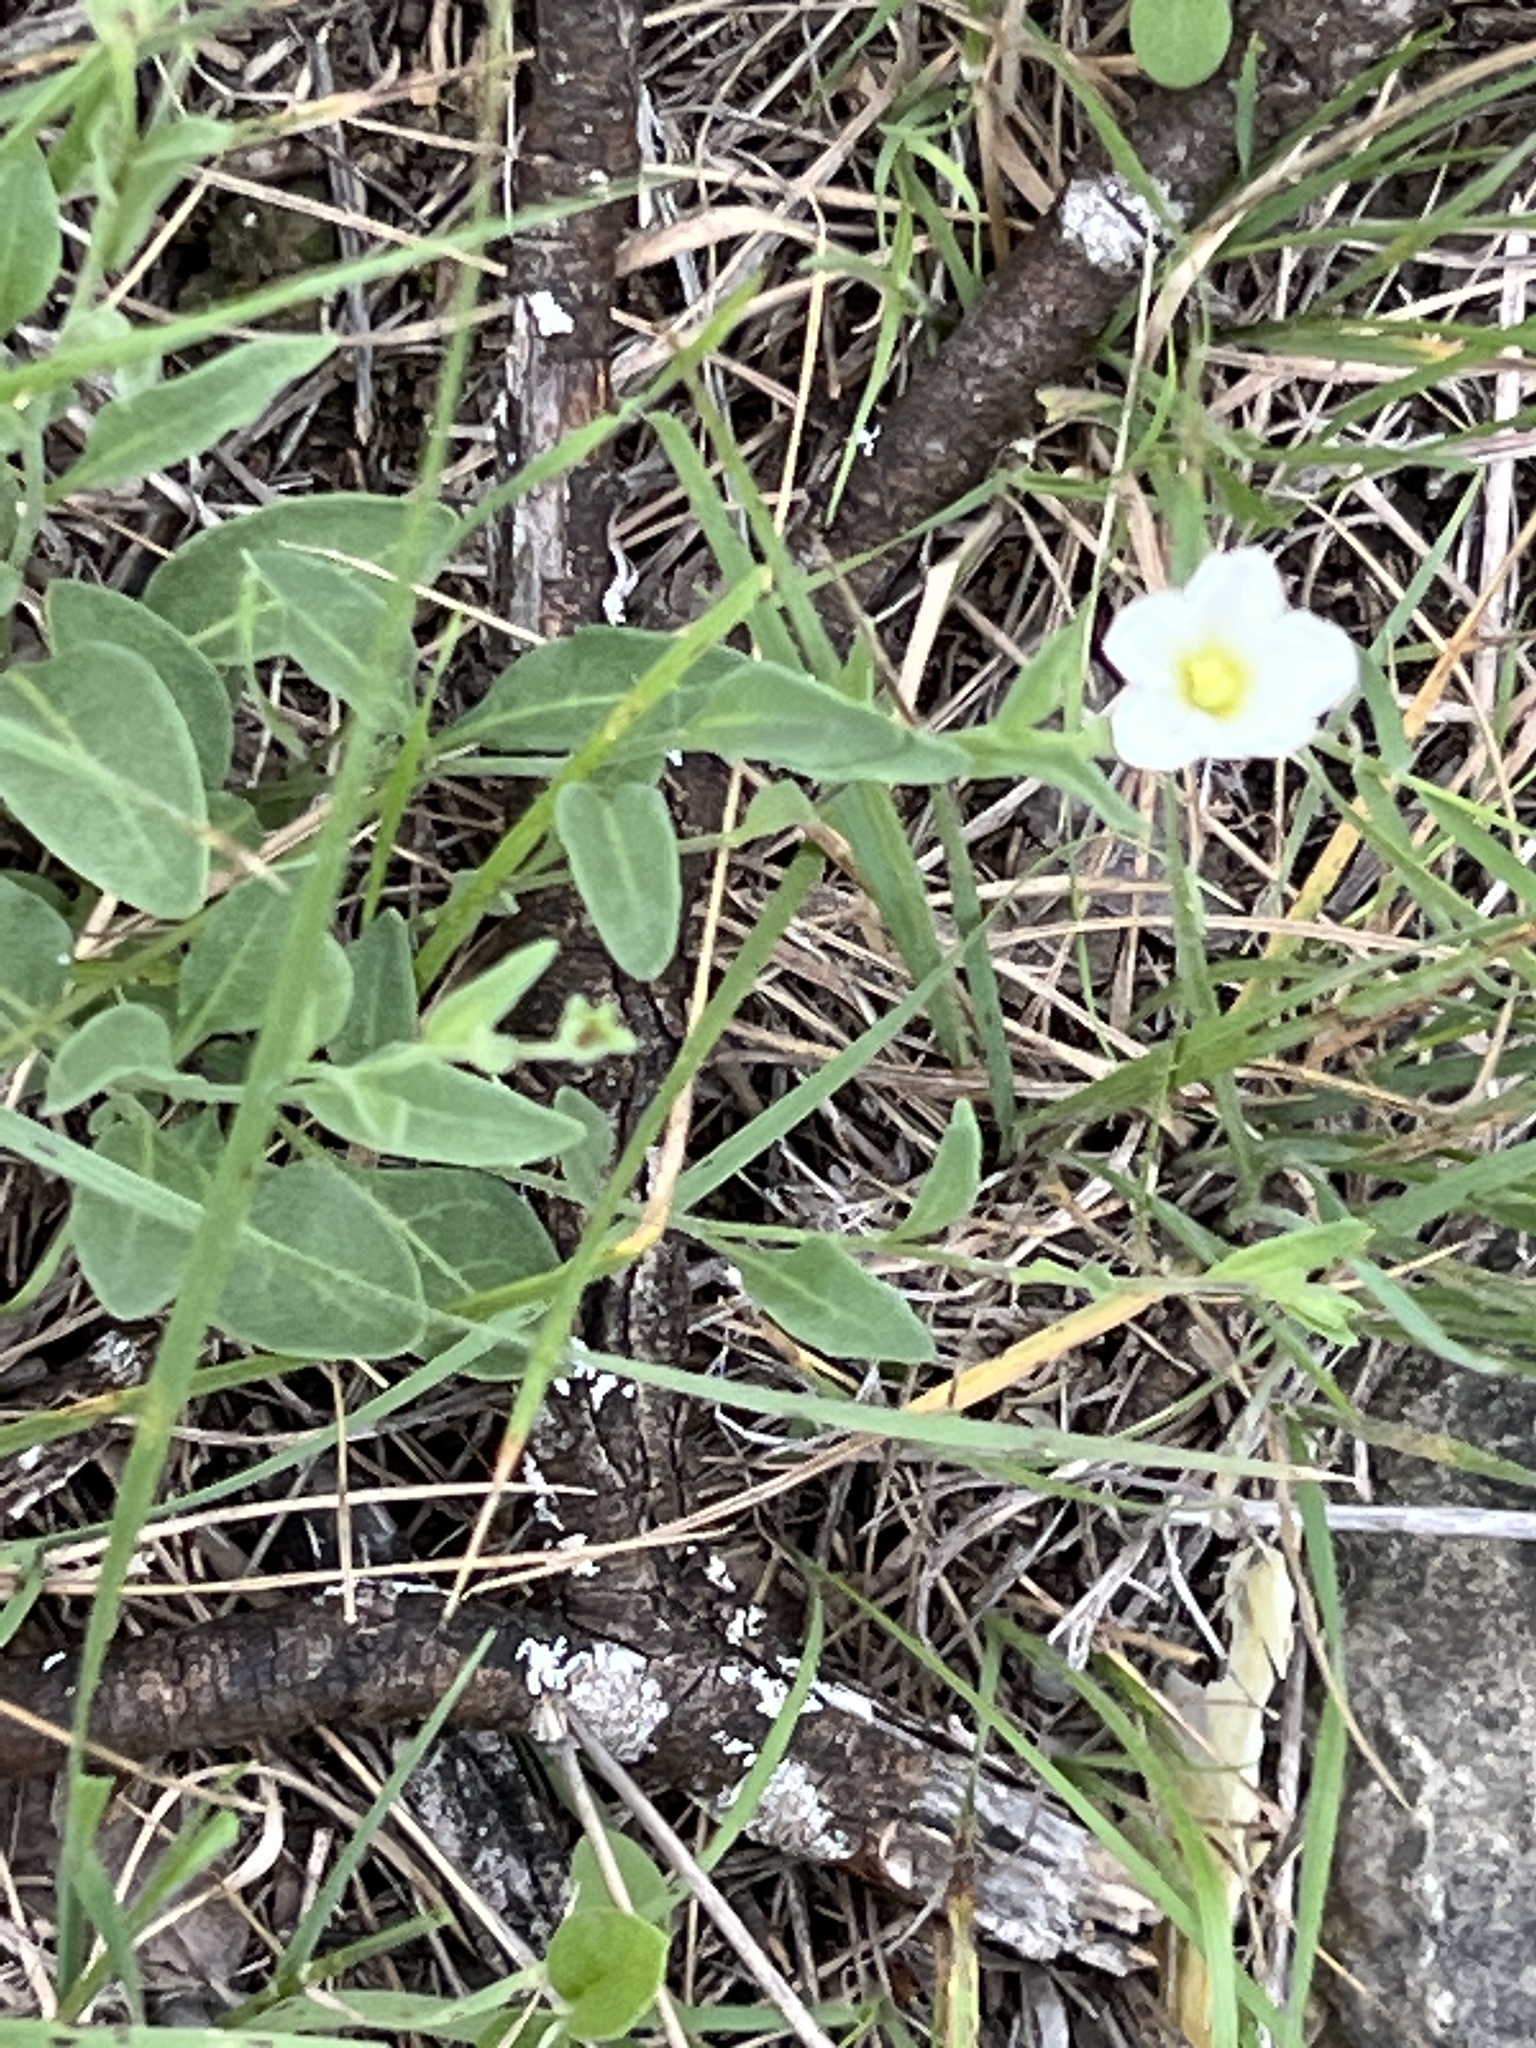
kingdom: Plantae
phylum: Tracheophyta
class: Magnoliopsida
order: Solanales
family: Solanaceae
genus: Salpiglossis
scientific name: Salpiglossis erecta
